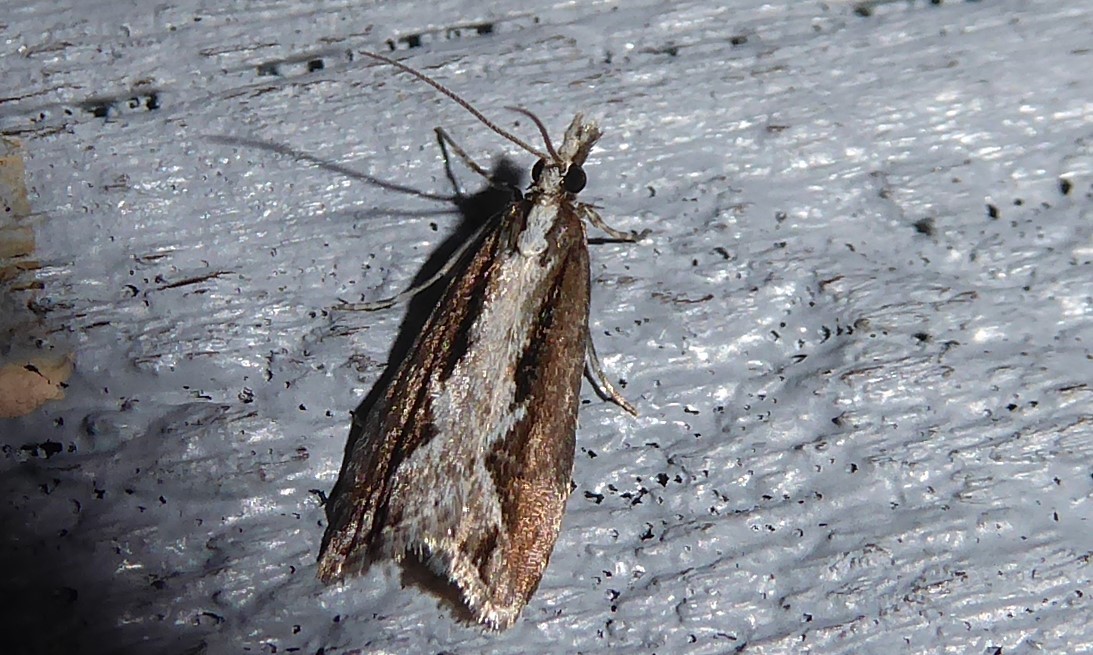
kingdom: Animalia
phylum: Arthropoda
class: Insecta
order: Lepidoptera
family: Crambidae
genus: Eudonia
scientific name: Eudonia steropaea
